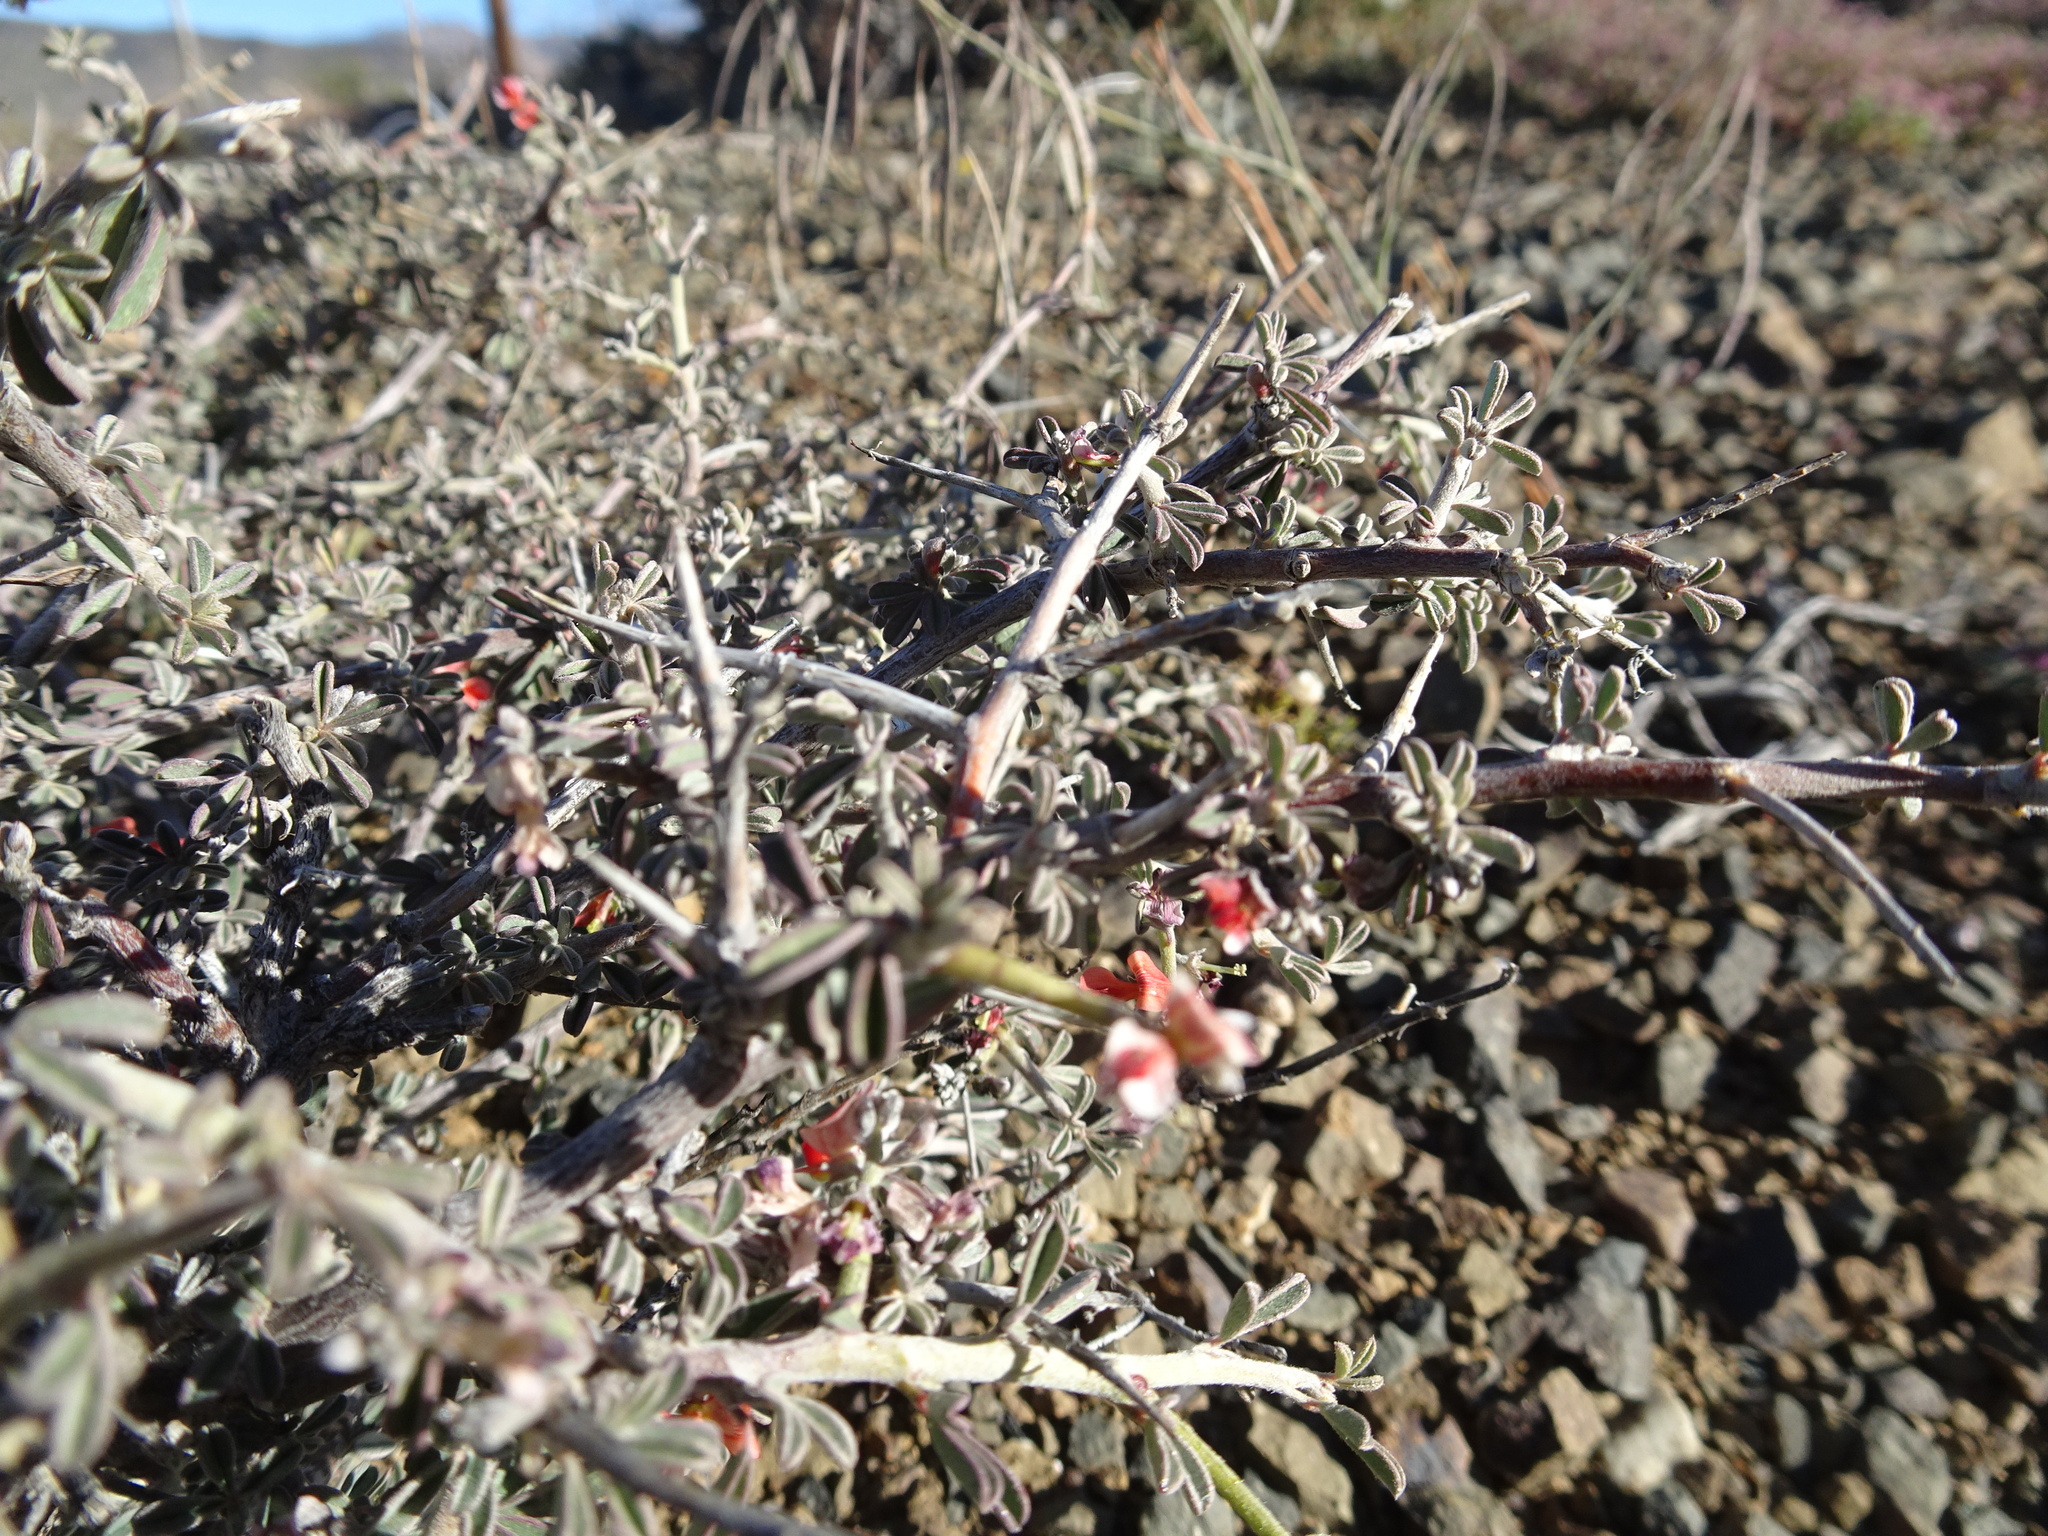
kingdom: Plantae
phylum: Tracheophyta
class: Magnoliopsida
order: Fabales
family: Fabaceae
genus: Indigofera
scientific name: Indigofera sessilifolia
